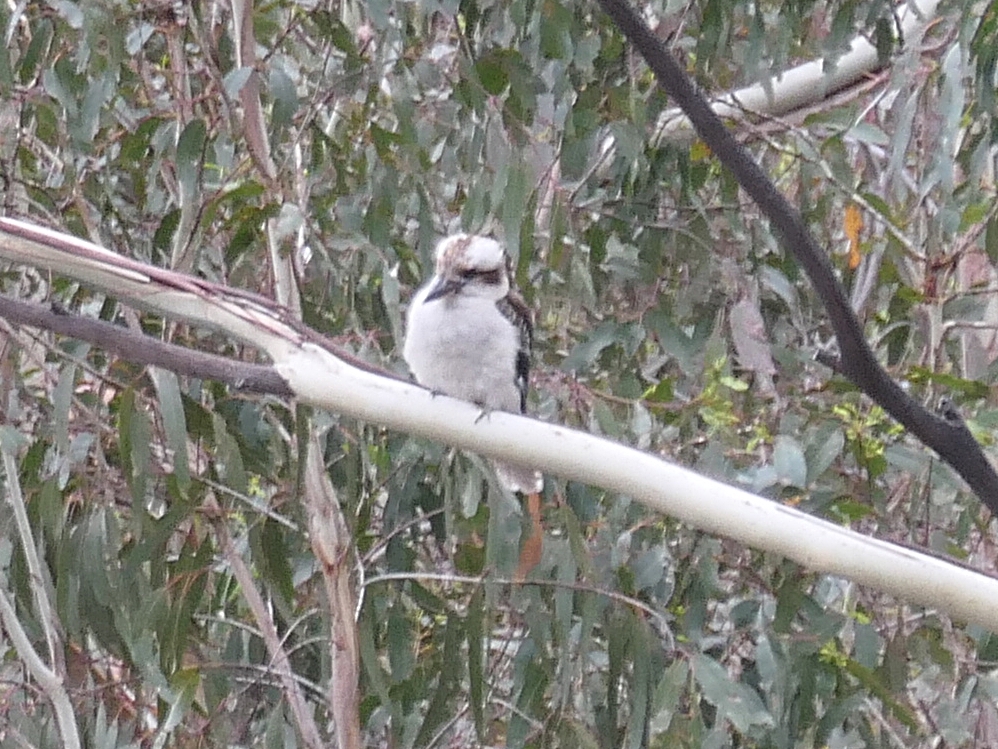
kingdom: Animalia
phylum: Chordata
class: Aves
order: Coraciiformes
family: Alcedinidae
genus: Dacelo
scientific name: Dacelo novaeguineae
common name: Laughing kookaburra
